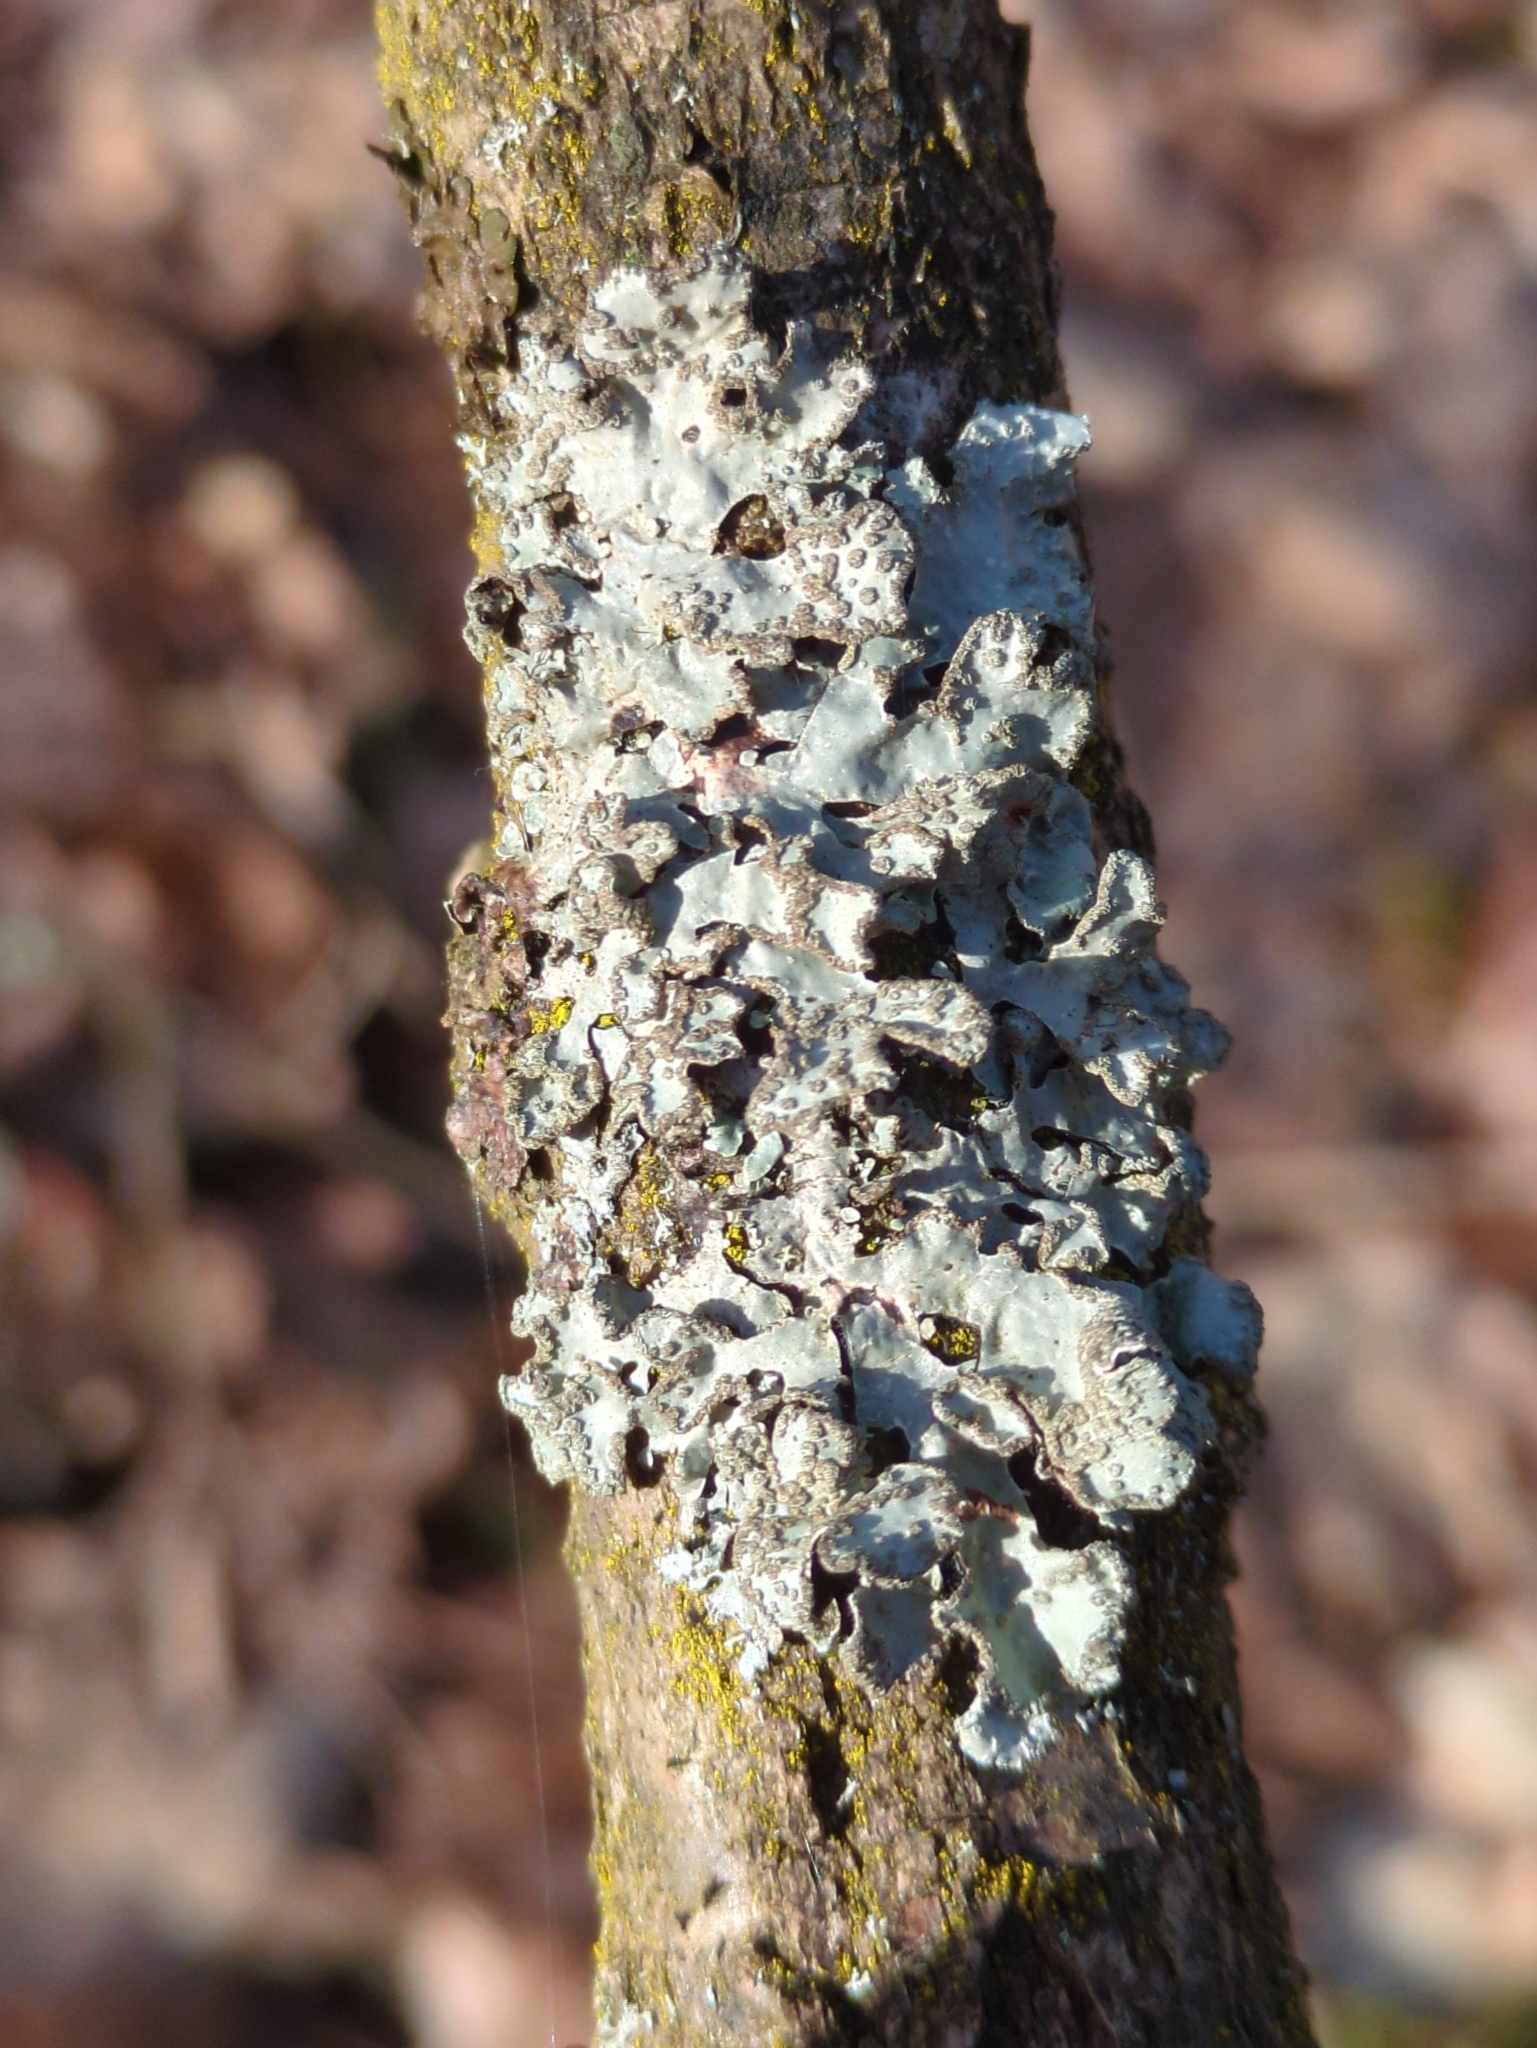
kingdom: Fungi
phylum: Ascomycota
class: Lecanoromycetes
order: Lecanorales
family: Parmeliaceae
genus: Parmelia
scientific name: Parmelia sulcata
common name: Netted shield lichen
